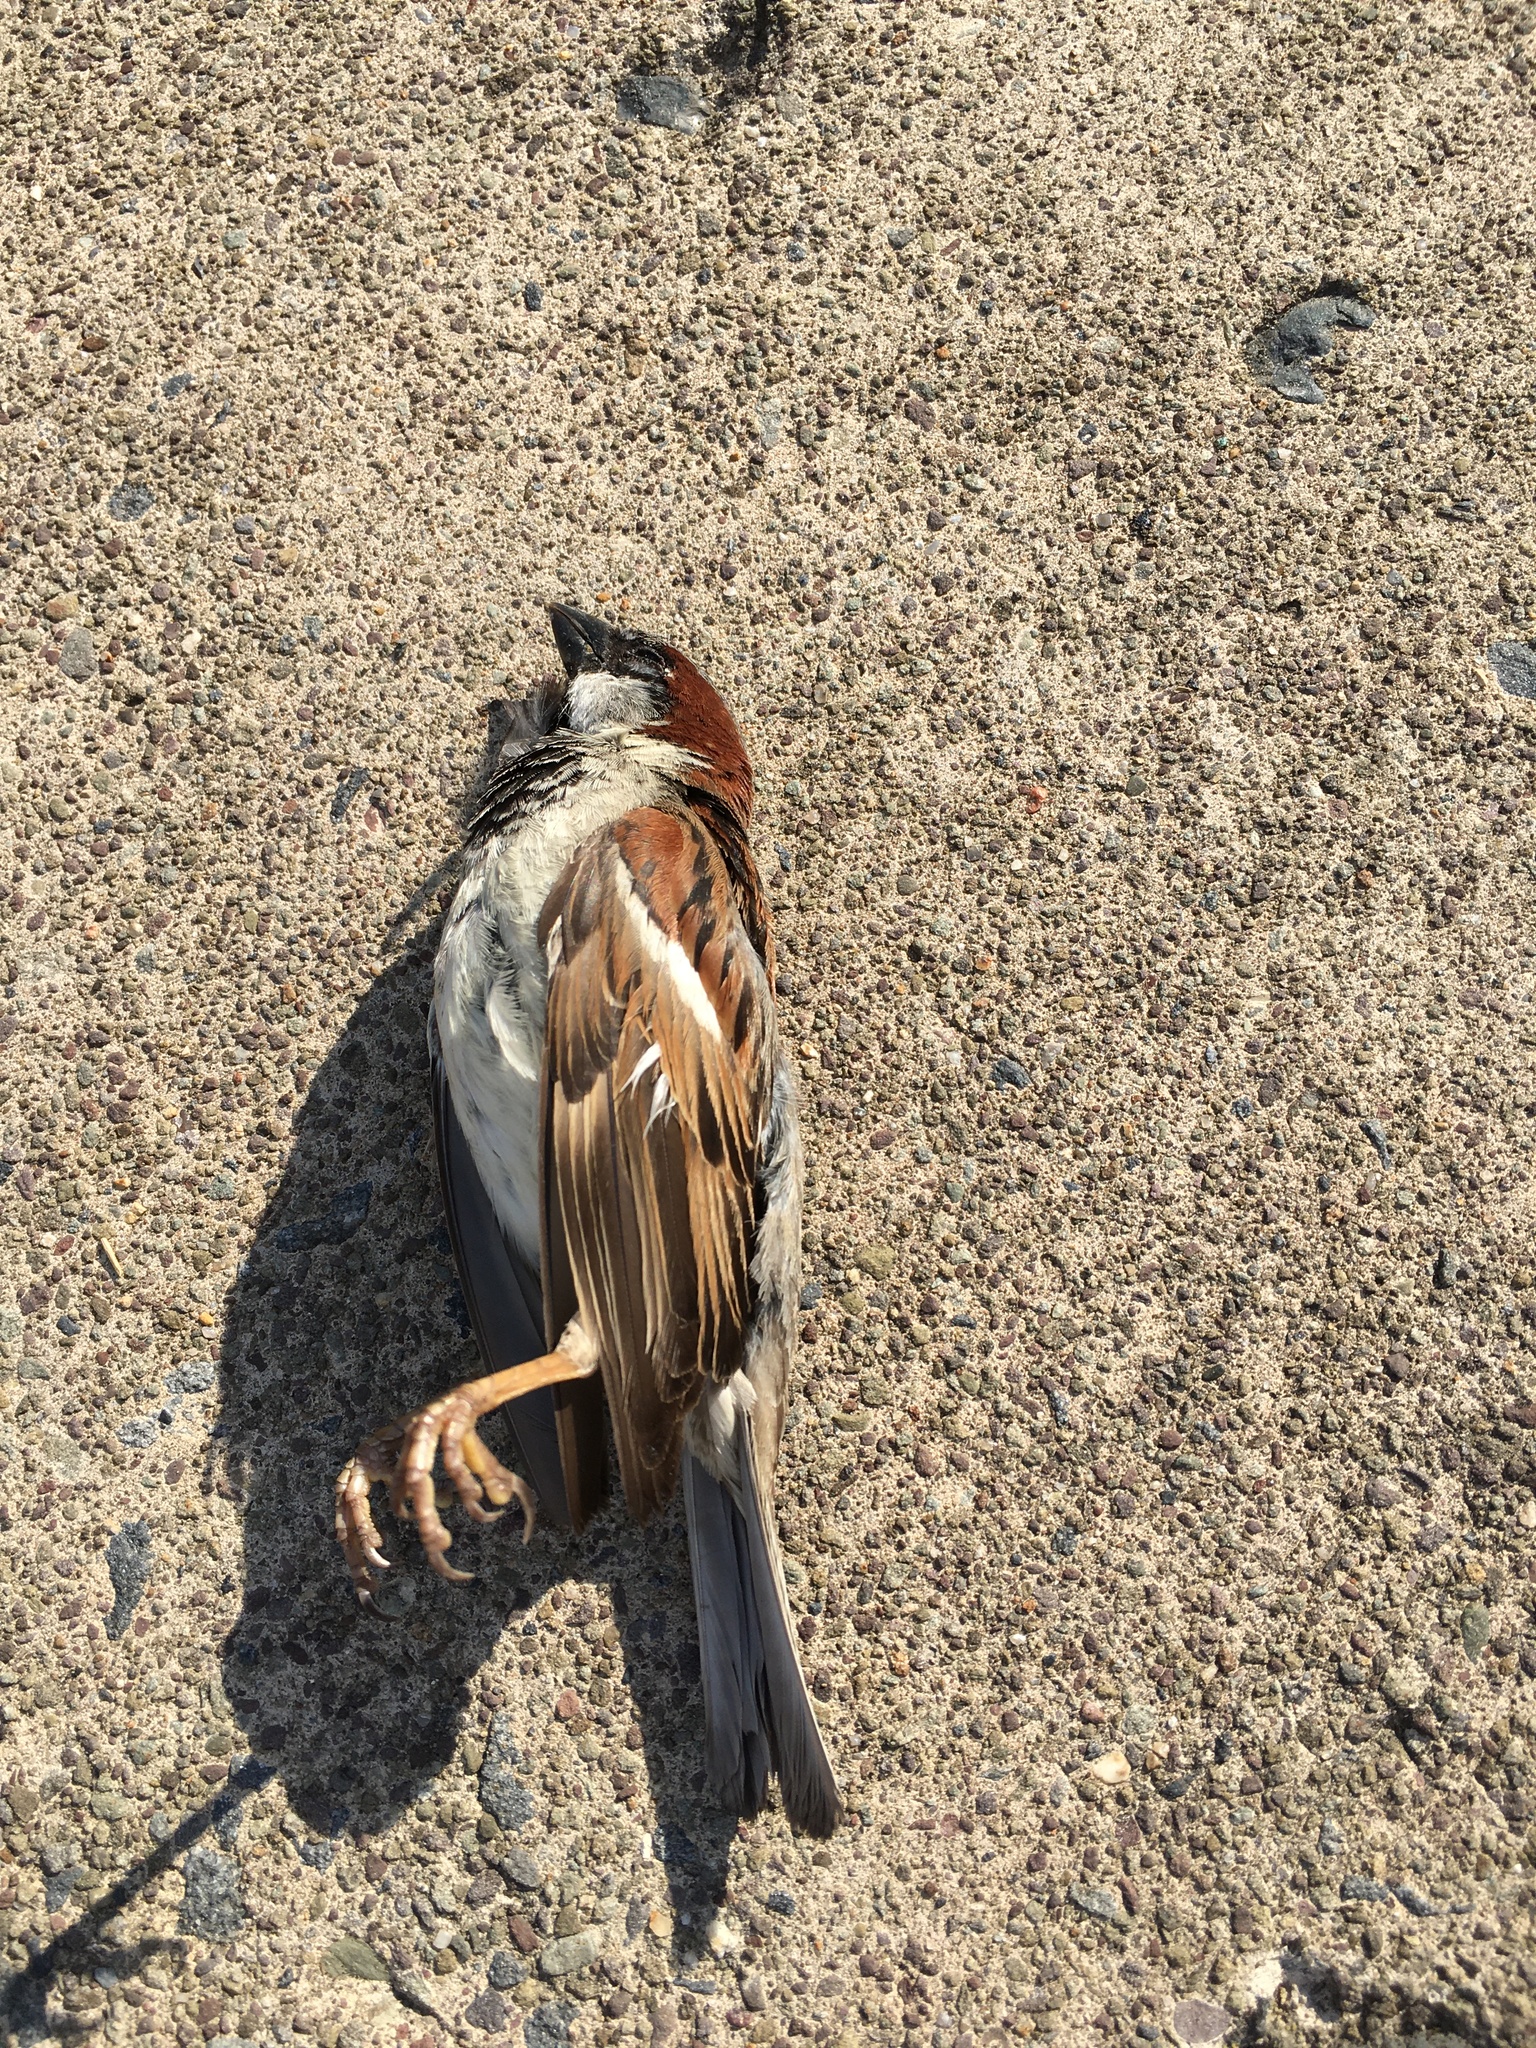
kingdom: Animalia
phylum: Chordata
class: Aves
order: Passeriformes
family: Passeridae
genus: Passer
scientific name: Passer domesticus
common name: House sparrow
